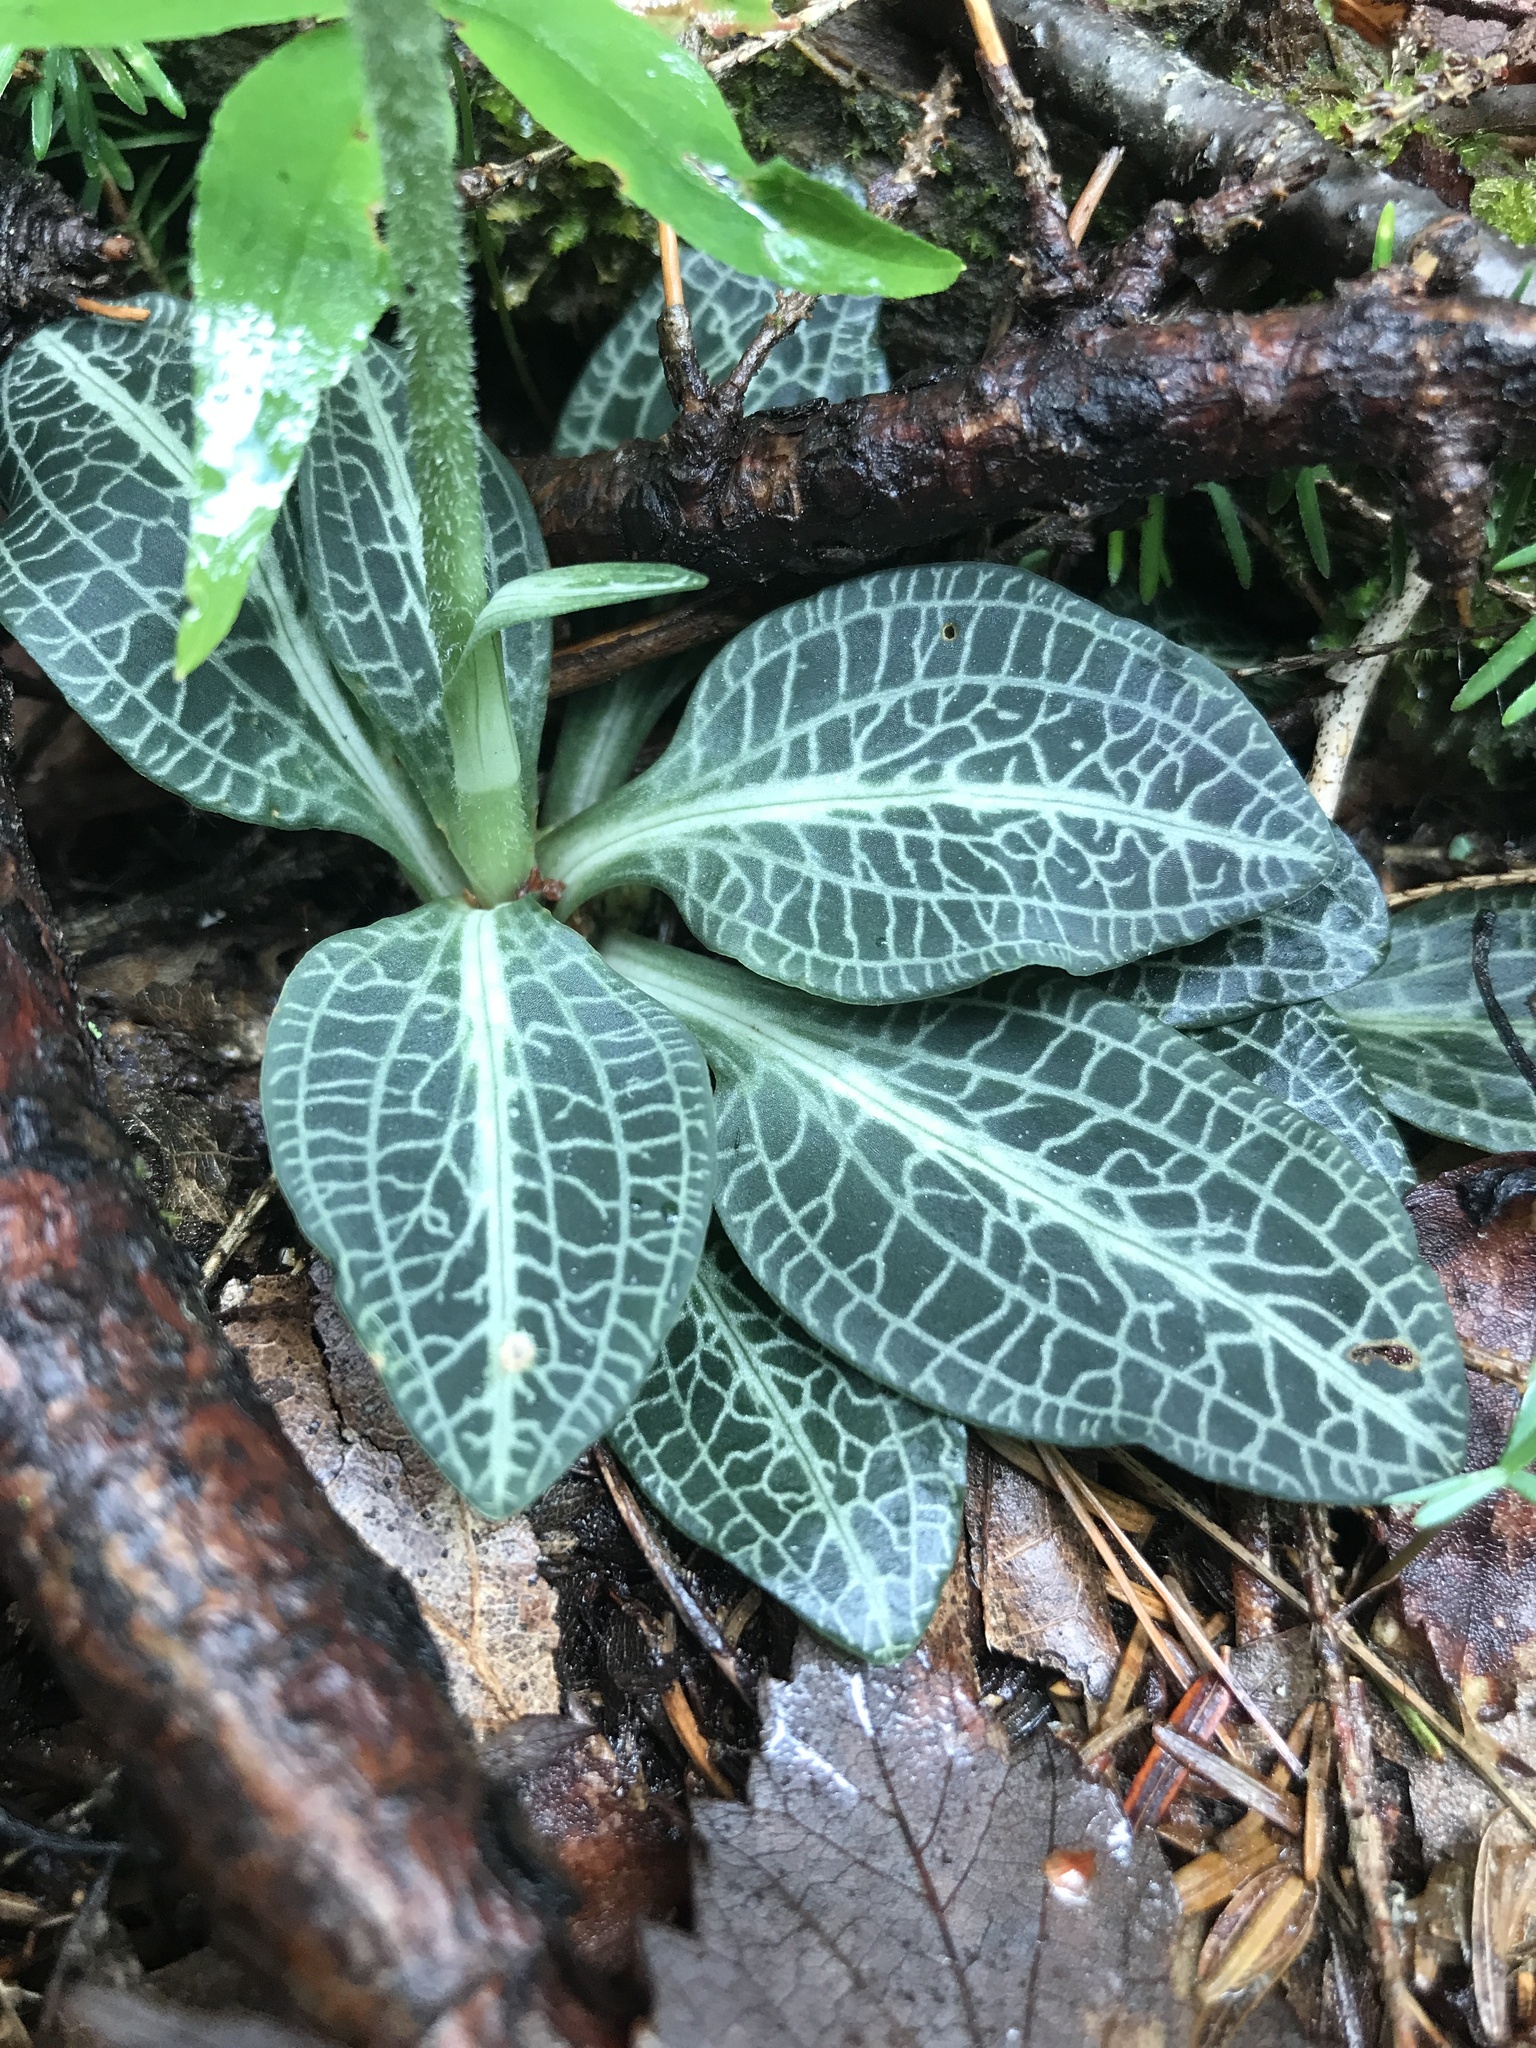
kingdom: Plantae
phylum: Tracheophyta
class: Liliopsida
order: Asparagales
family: Orchidaceae
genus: Goodyera
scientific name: Goodyera pubescens
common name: Downy rattlesnake-plantain
